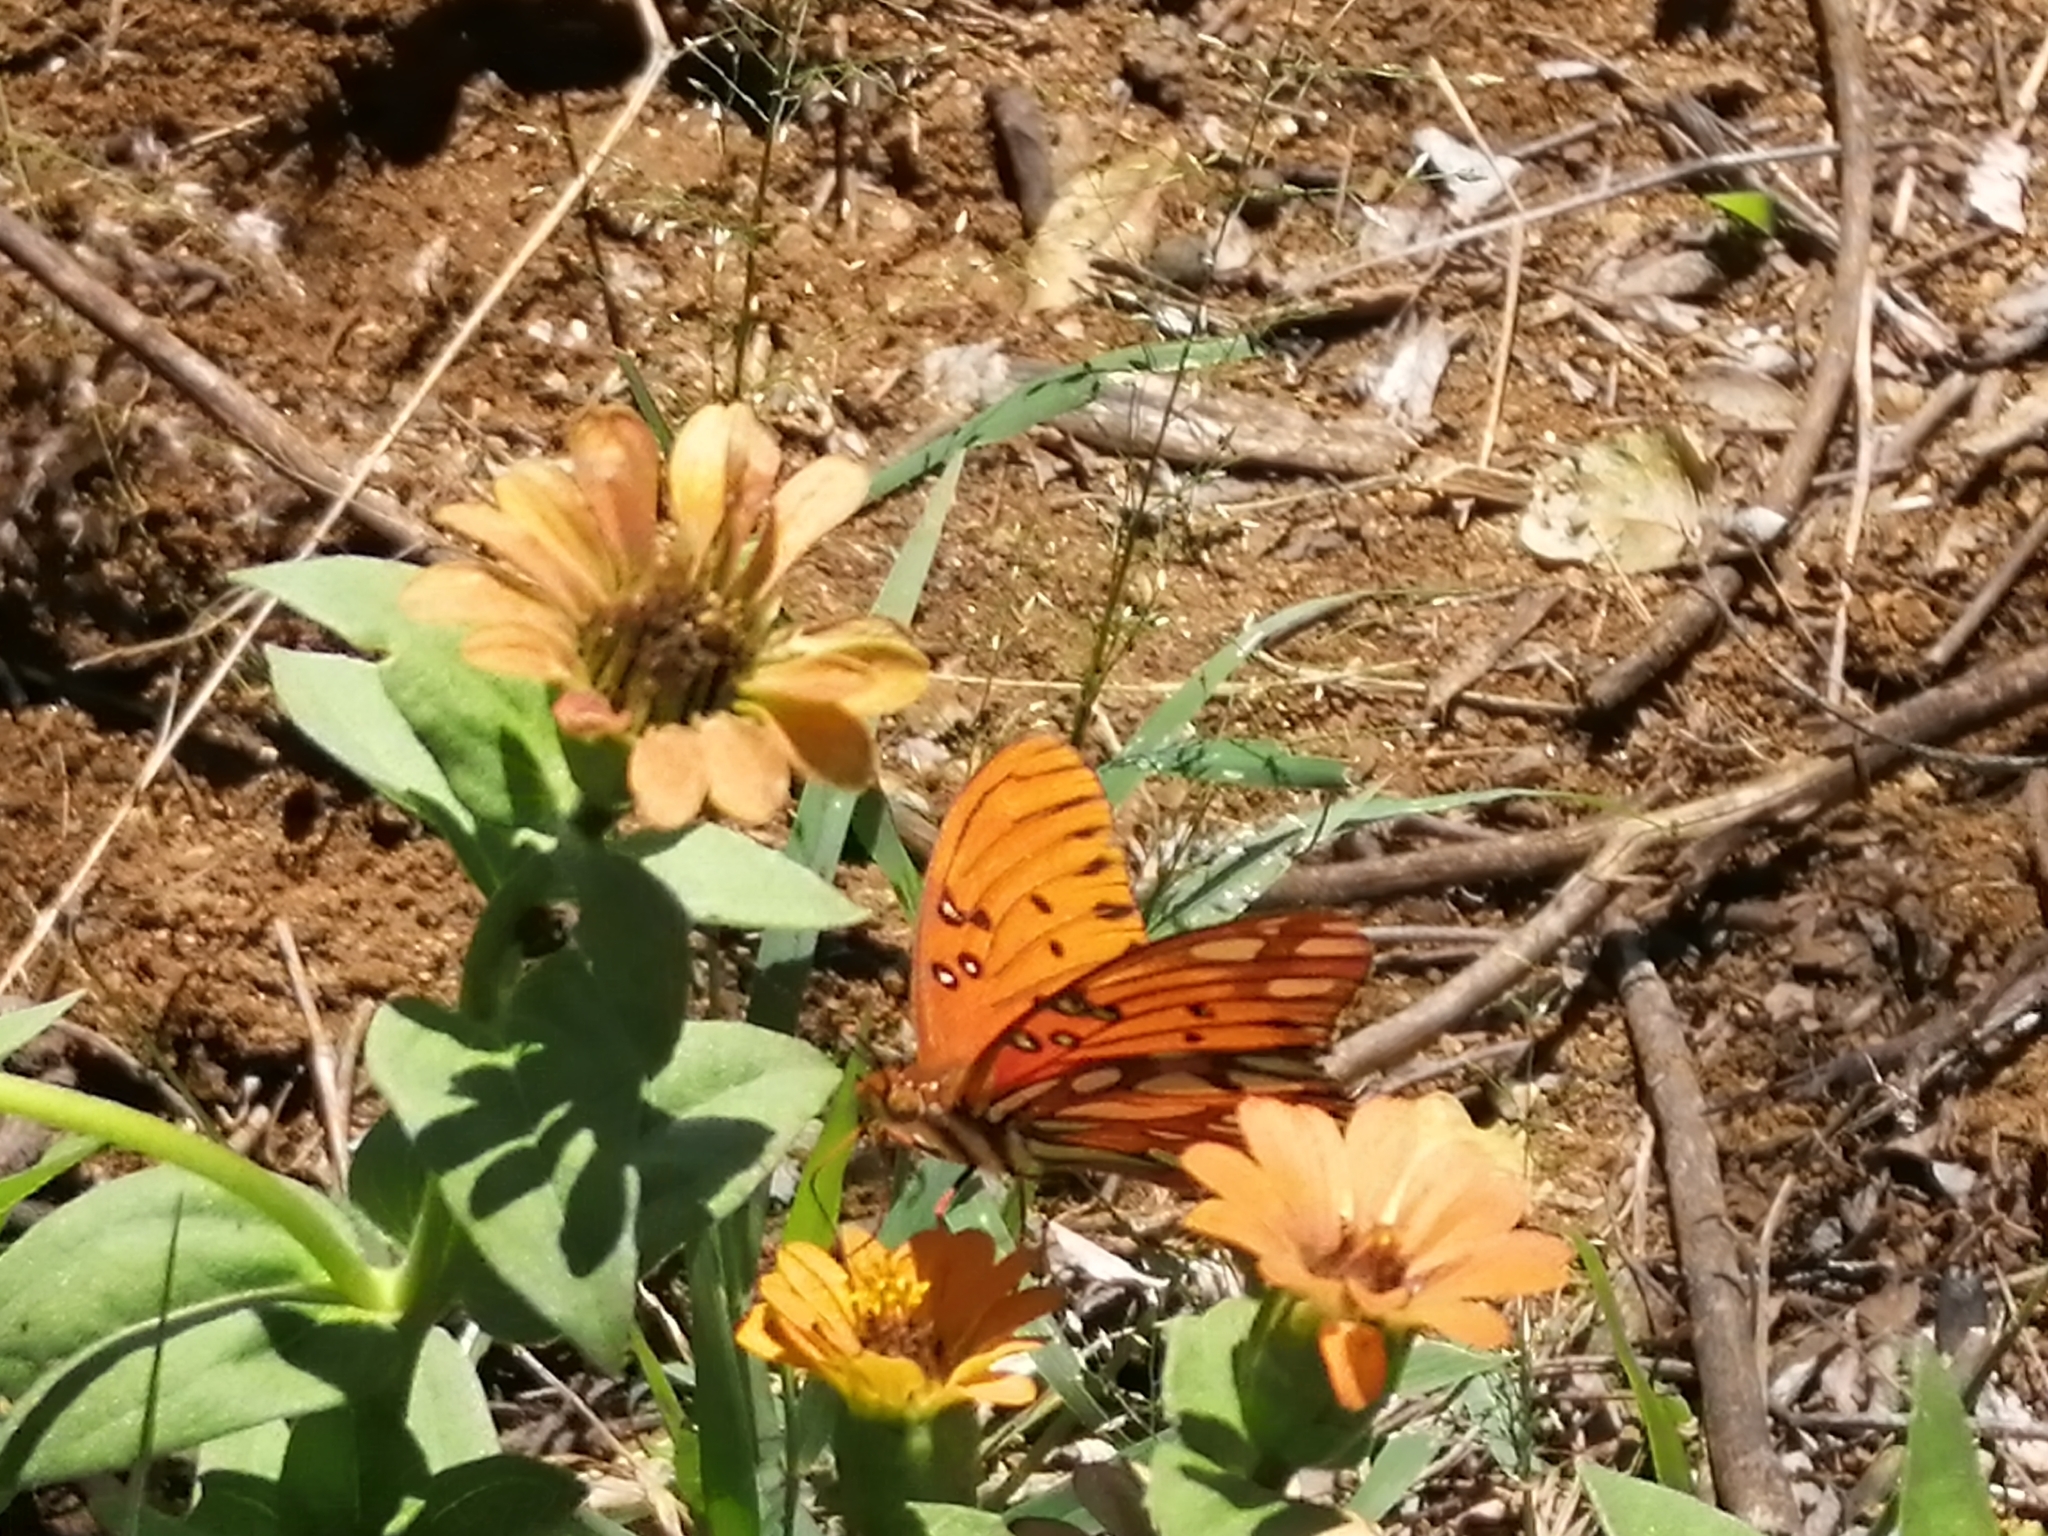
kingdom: Animalia
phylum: Arthropoda
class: Insecta
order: Lepidoptera
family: Nymphalidae
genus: Dione
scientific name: Dione vanillae
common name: Gulf fritillary
